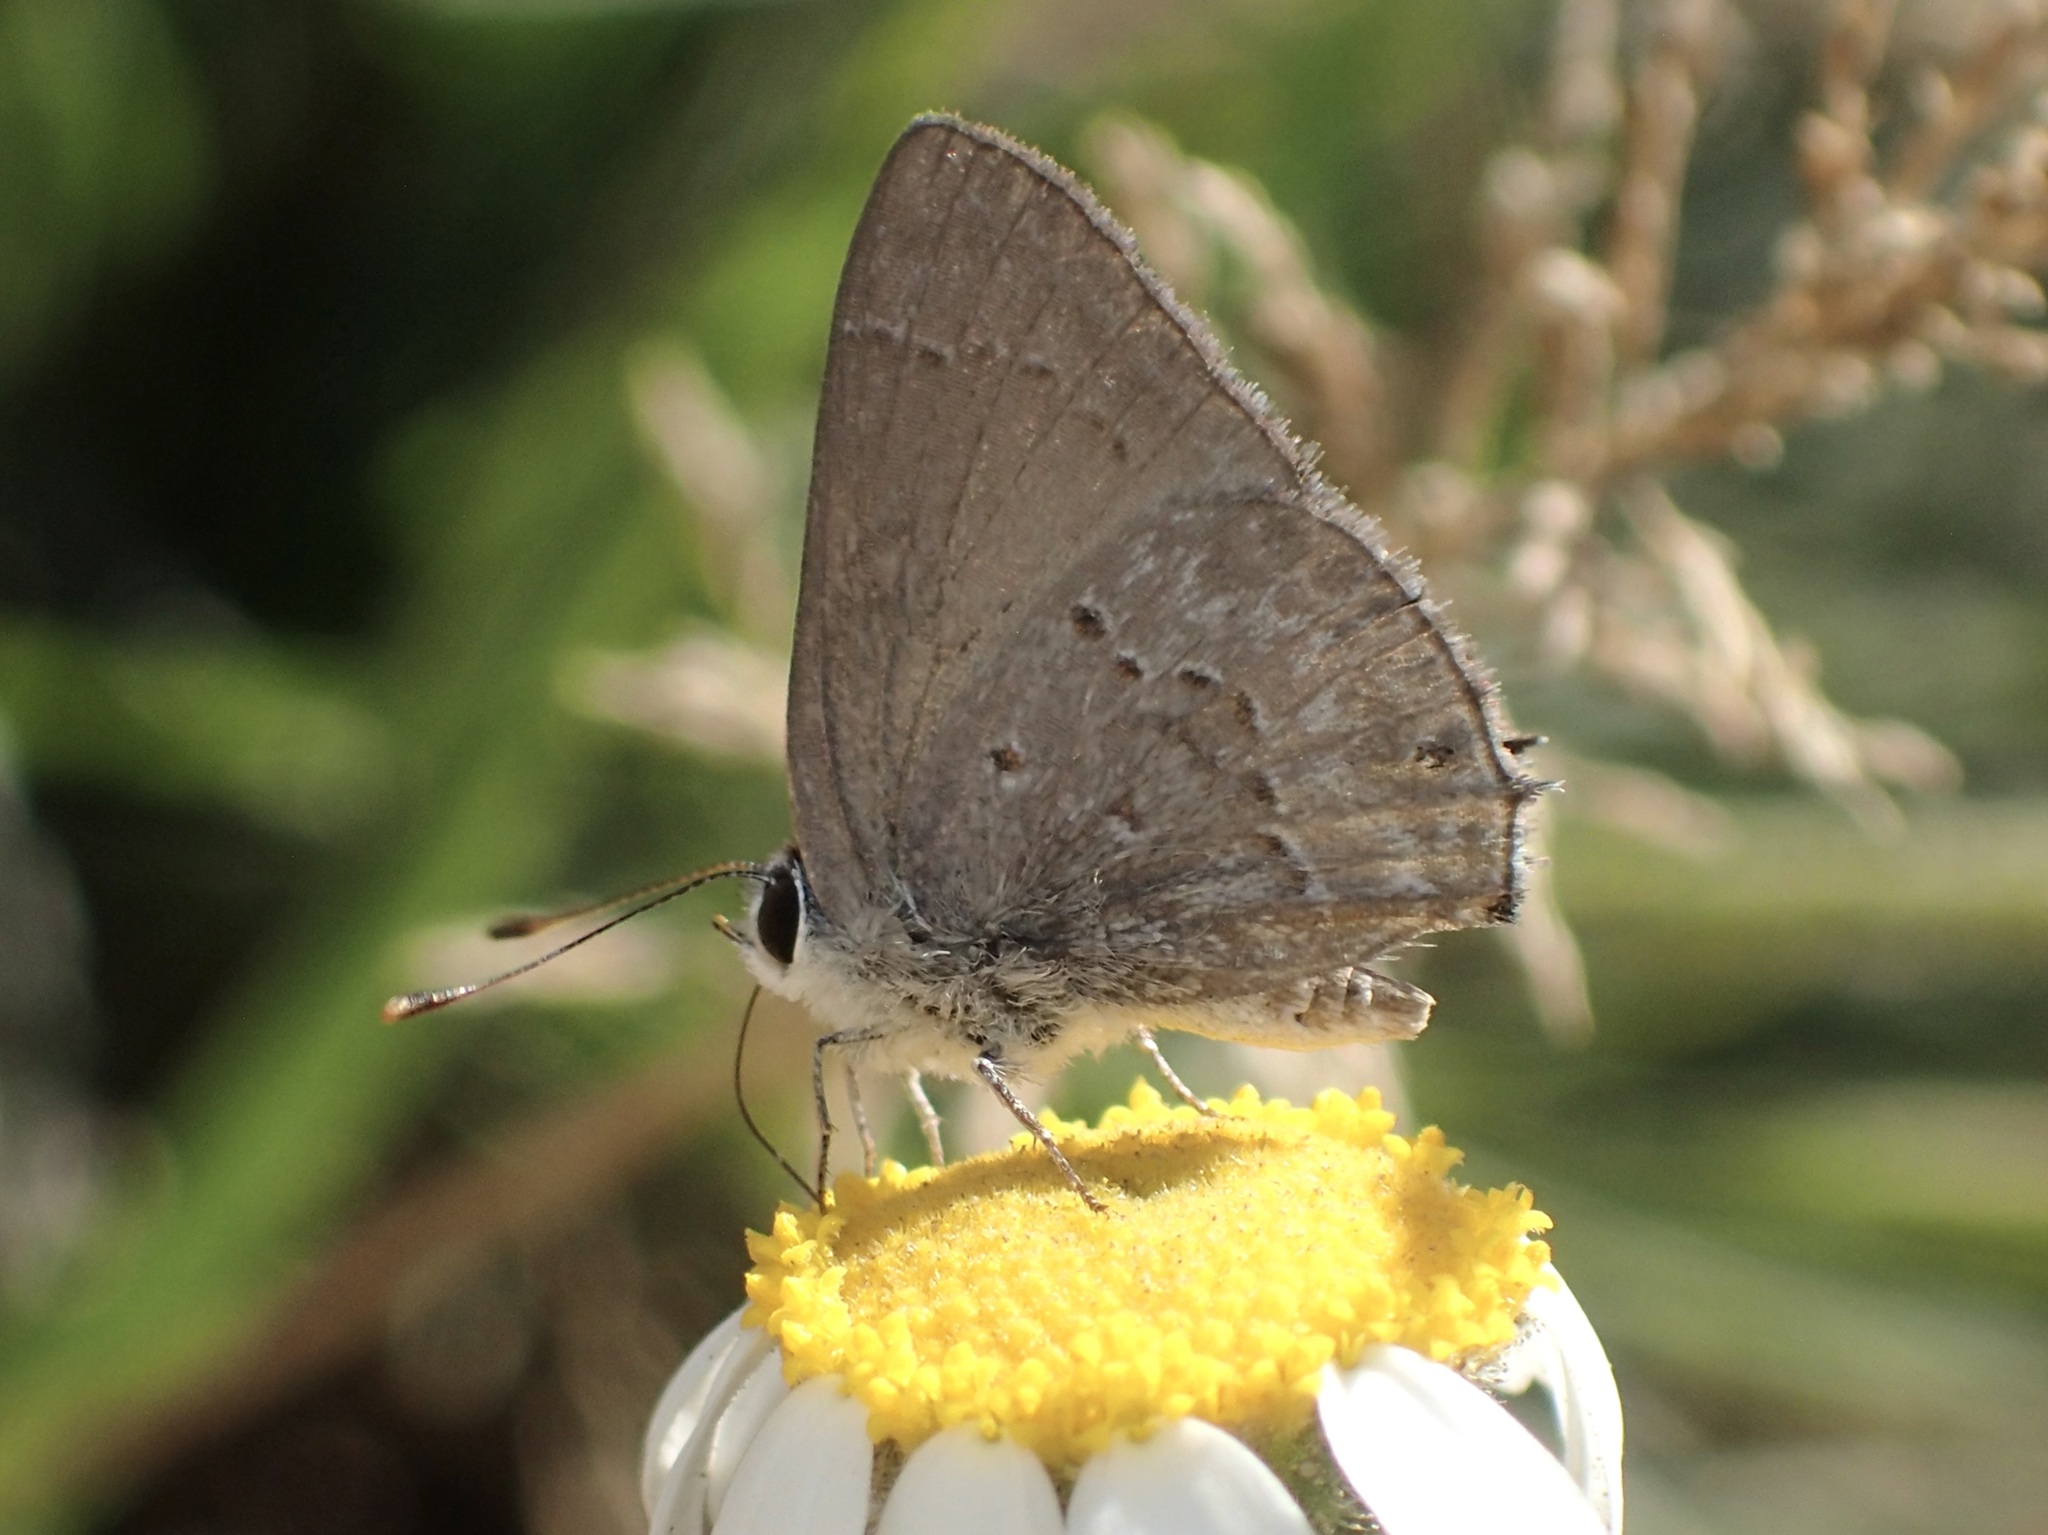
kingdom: Animalia
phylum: Arthropoda
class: Insecta
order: Lepidoptera
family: Lycaenidae
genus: Callicista
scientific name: Callicista columella
